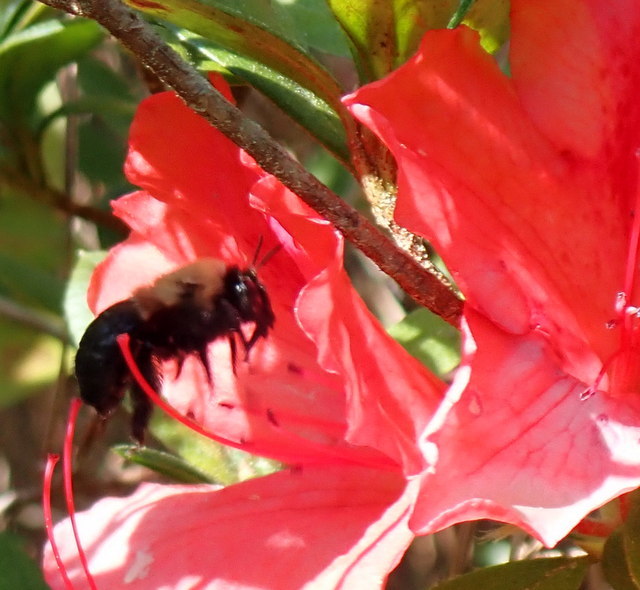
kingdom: Animalia
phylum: Arthropoda
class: Insecta
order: Hymenoptera
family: Apidae
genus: Xylocopa
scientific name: Xylocopa virginica
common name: Carpenter bee
